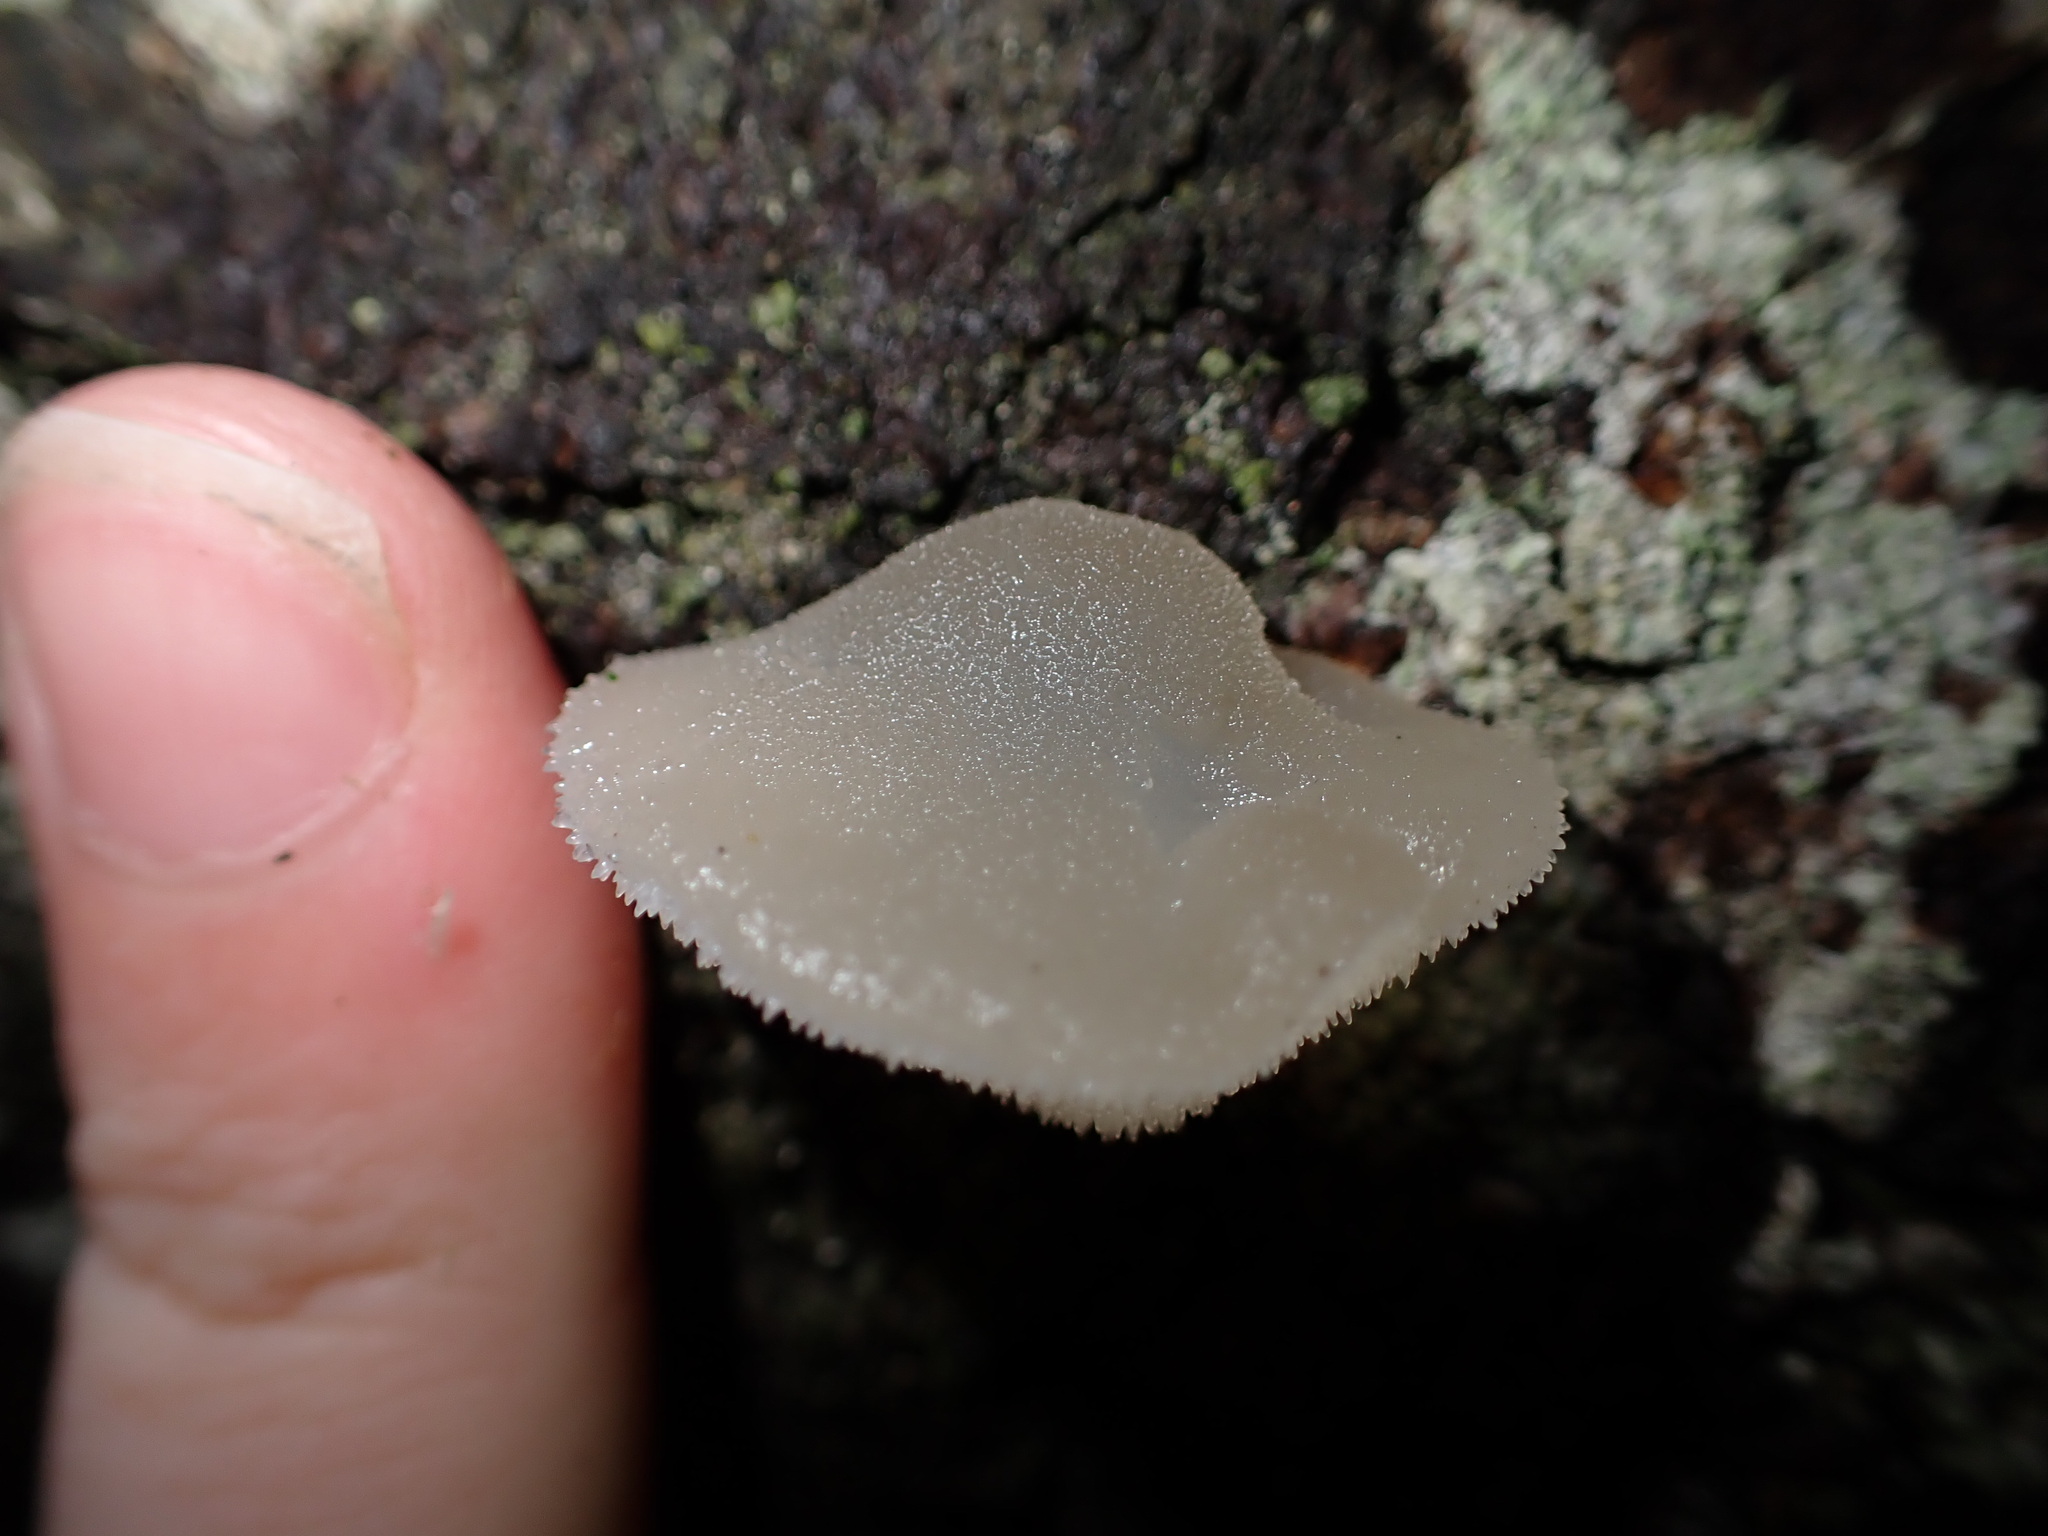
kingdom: Fungi
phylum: Basidiomycota
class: Agaricomycetes
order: Auriculariales
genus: Pseudohydnum
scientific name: Pseudohydnum gelatinosum
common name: Jelly tongue
